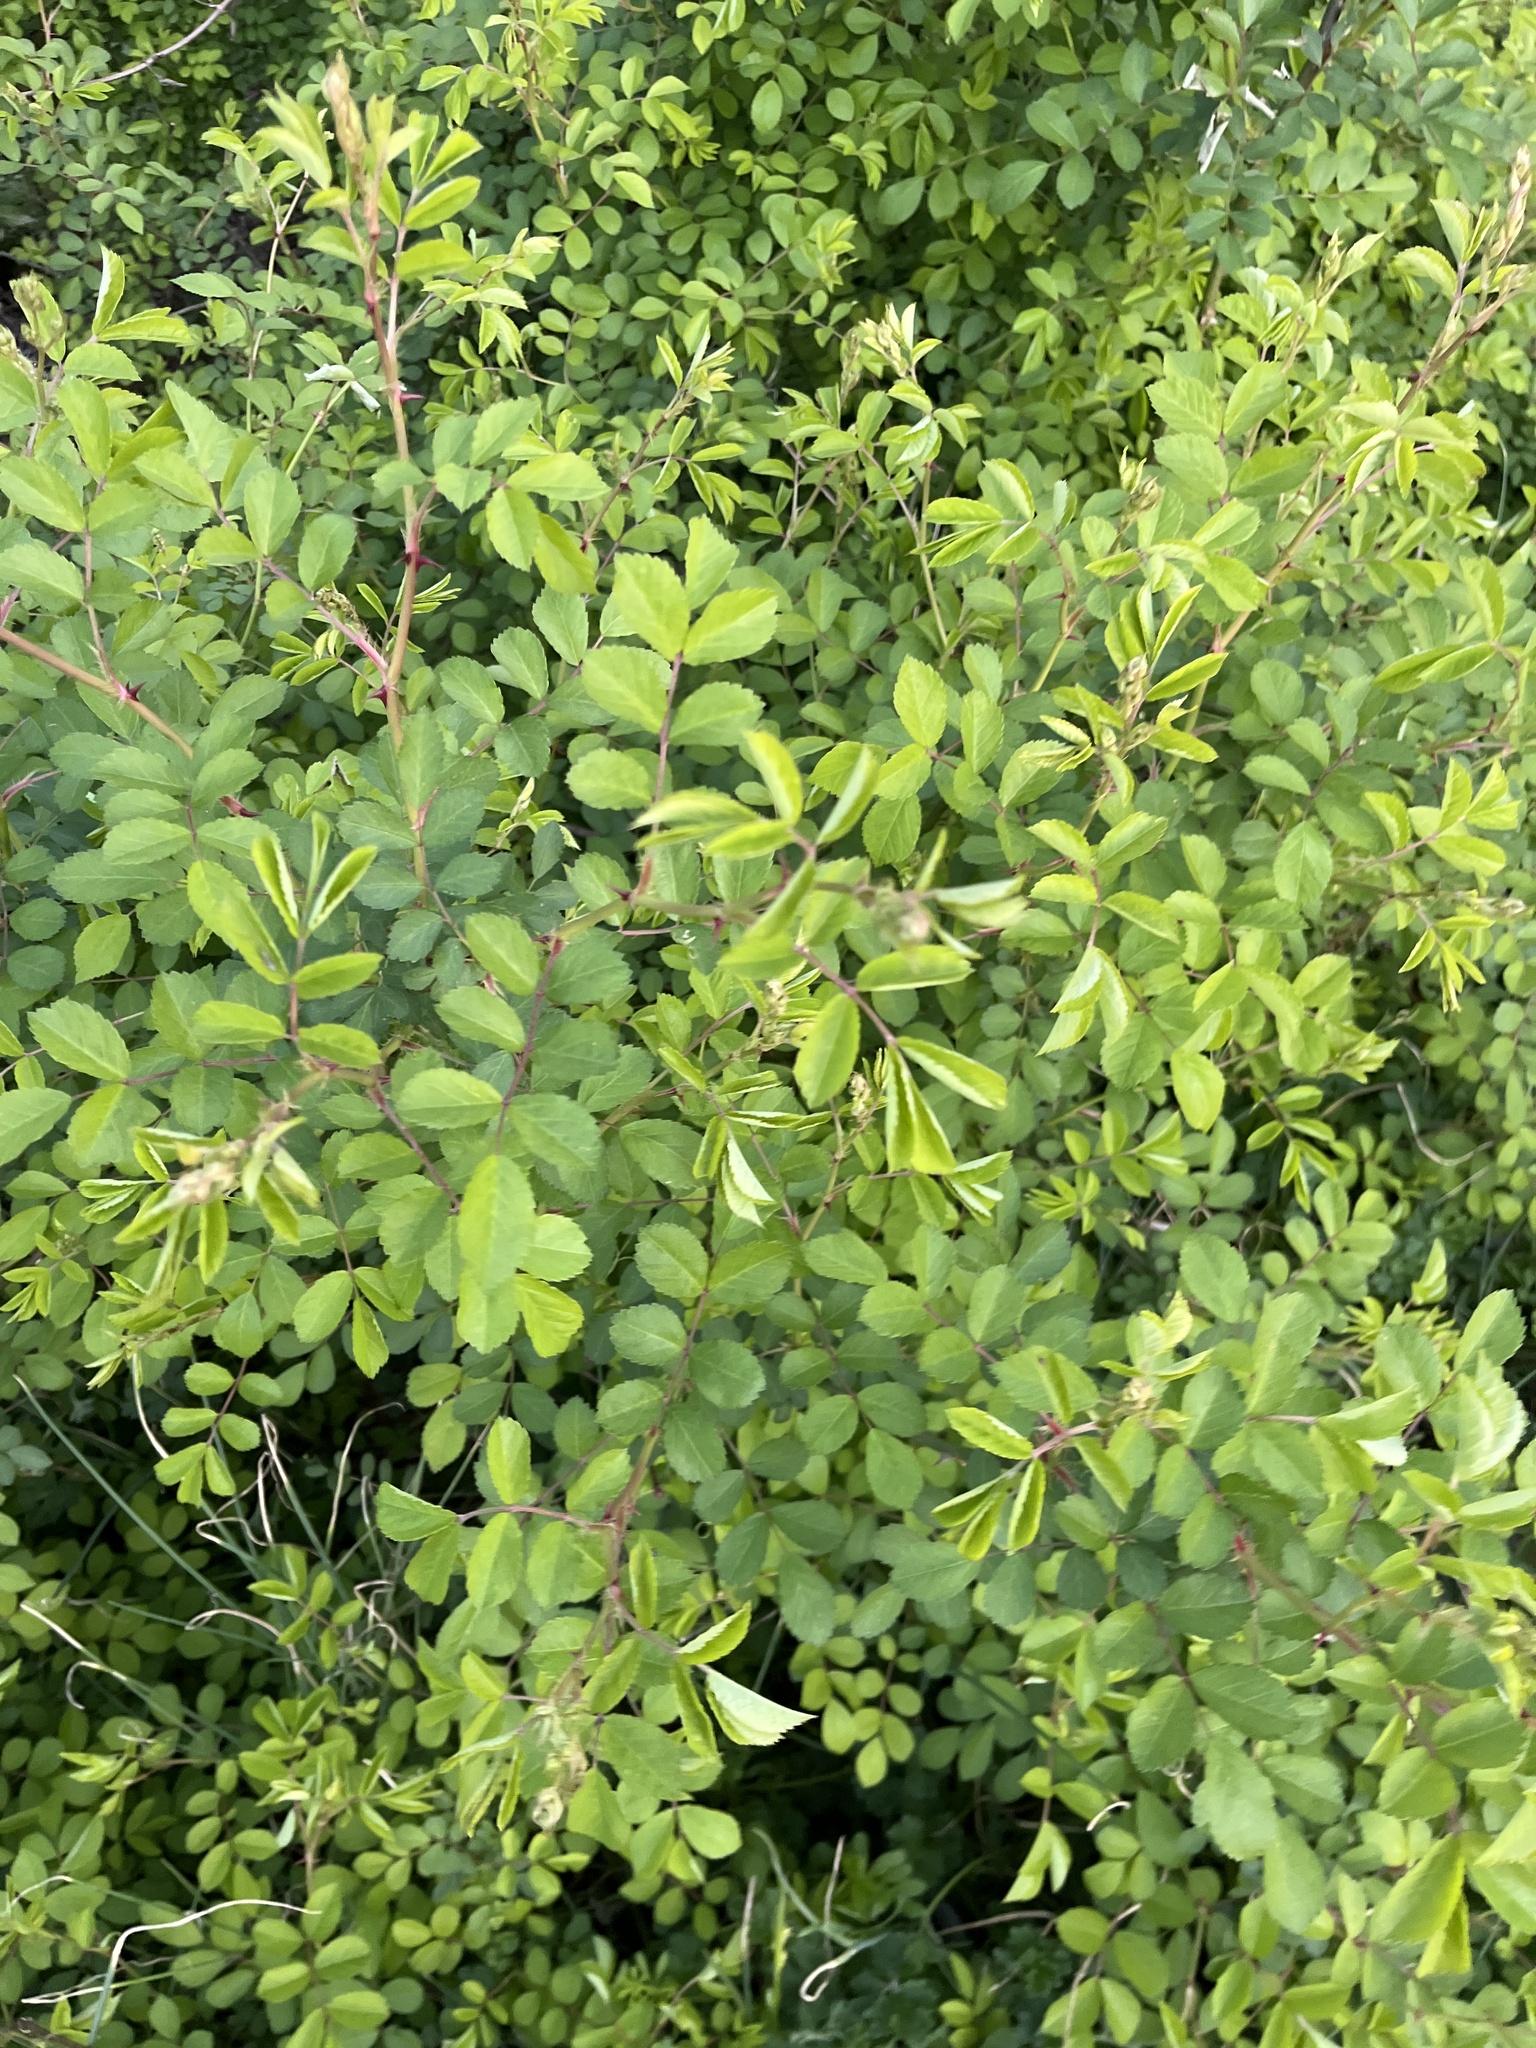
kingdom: Plantae
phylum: Tracheophyta
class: Magnoliopsida
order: Rosales
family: Rosaceae
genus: Rosa
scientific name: Rosa multiflora
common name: Multiflora rose
